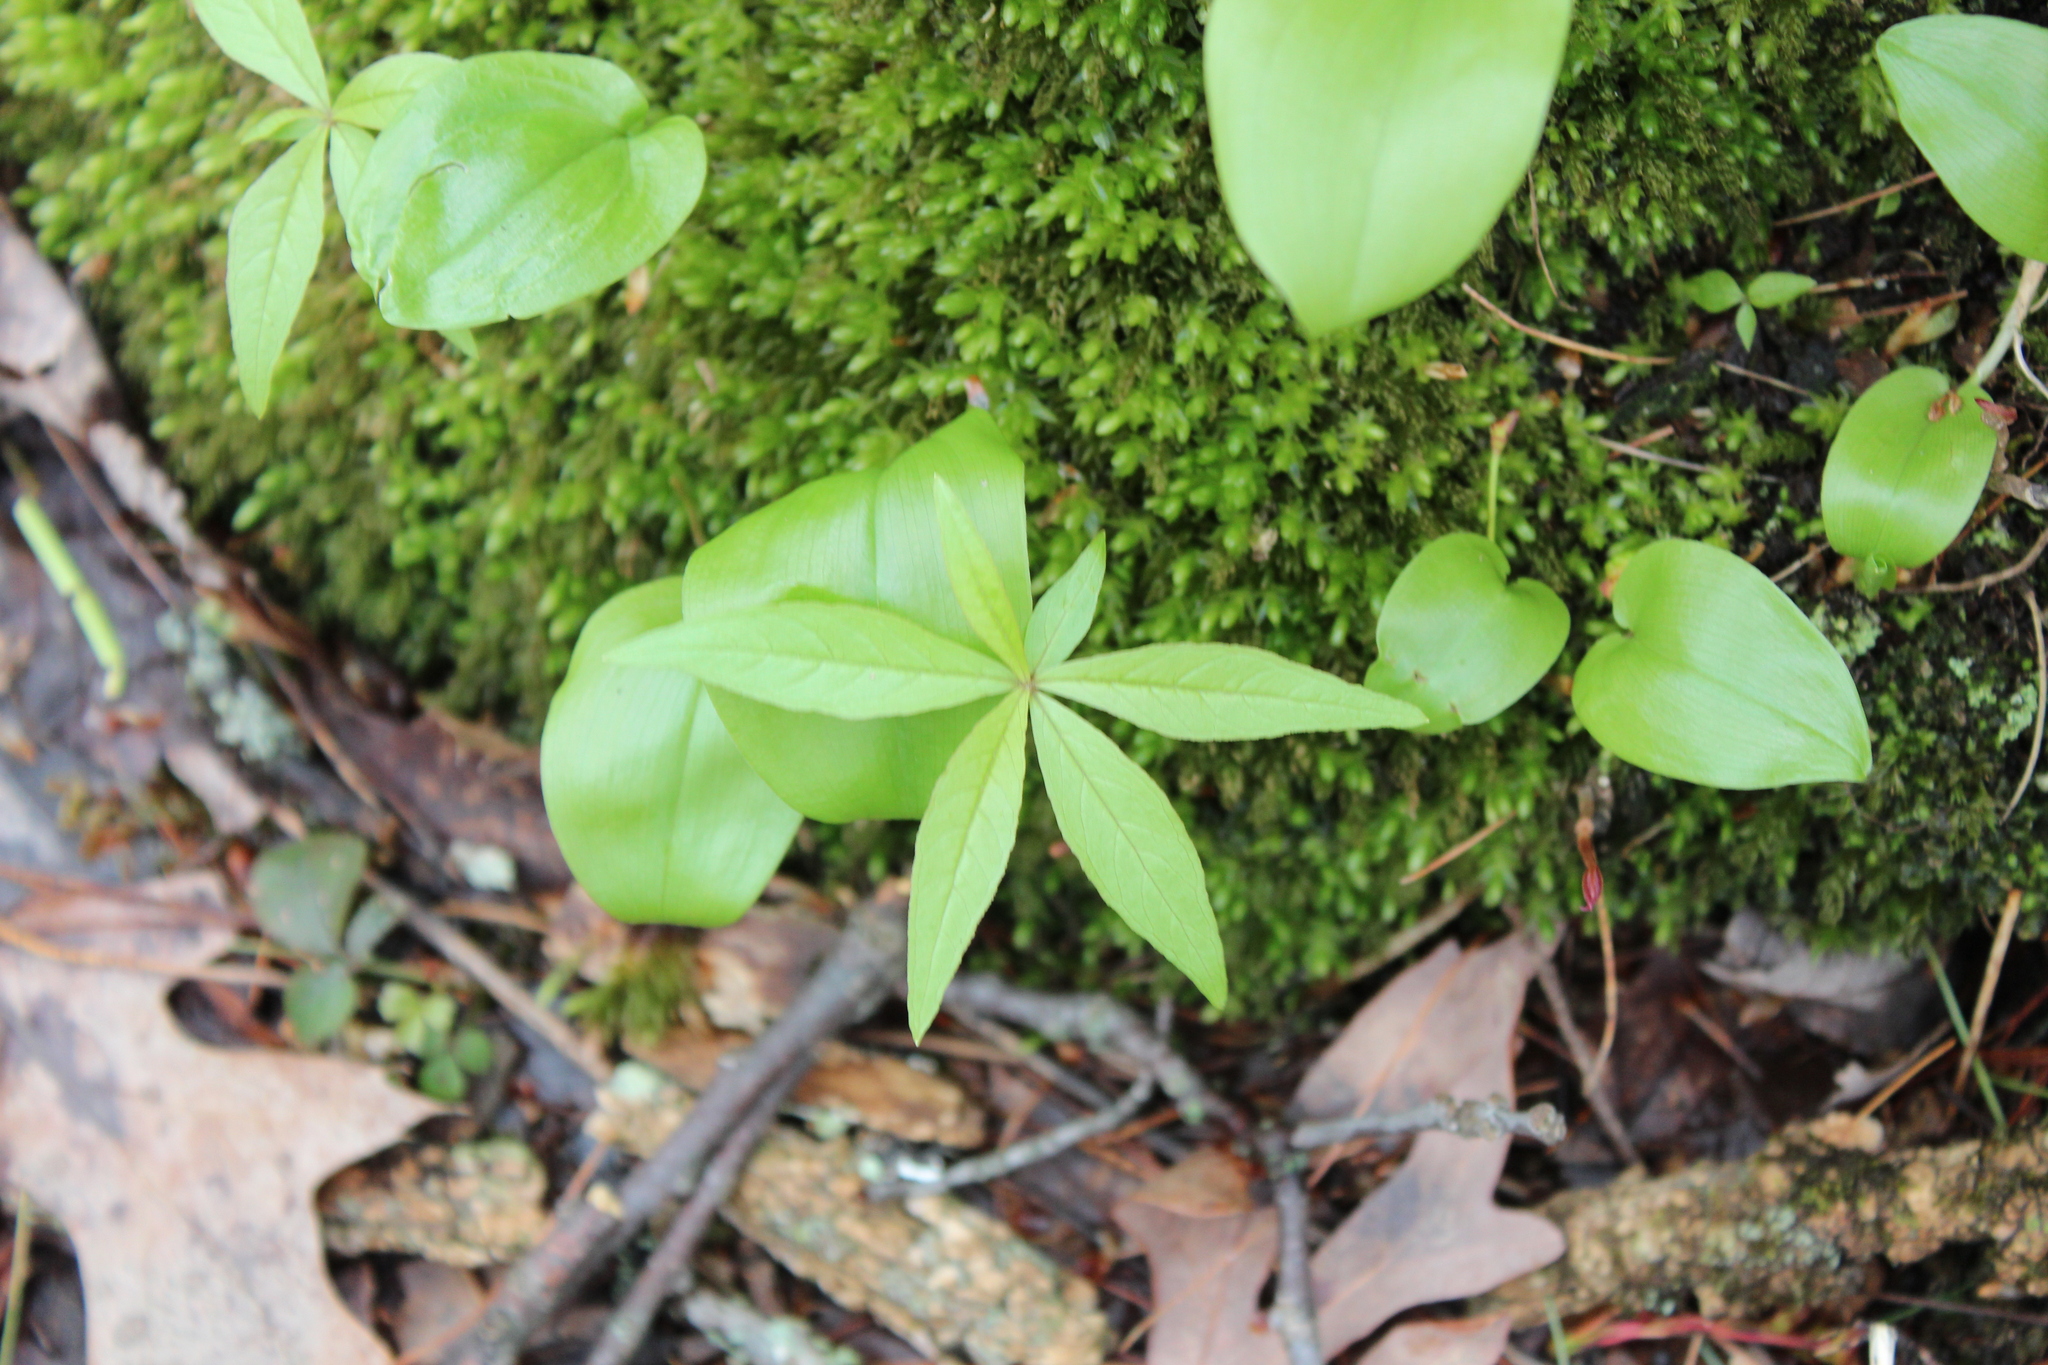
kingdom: Plantae
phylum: Tracheophyta
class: Magnoliopsida
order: Ericales
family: Primulaceae
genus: Lysimachia
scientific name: Lysimachia borealis
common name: American starflower
